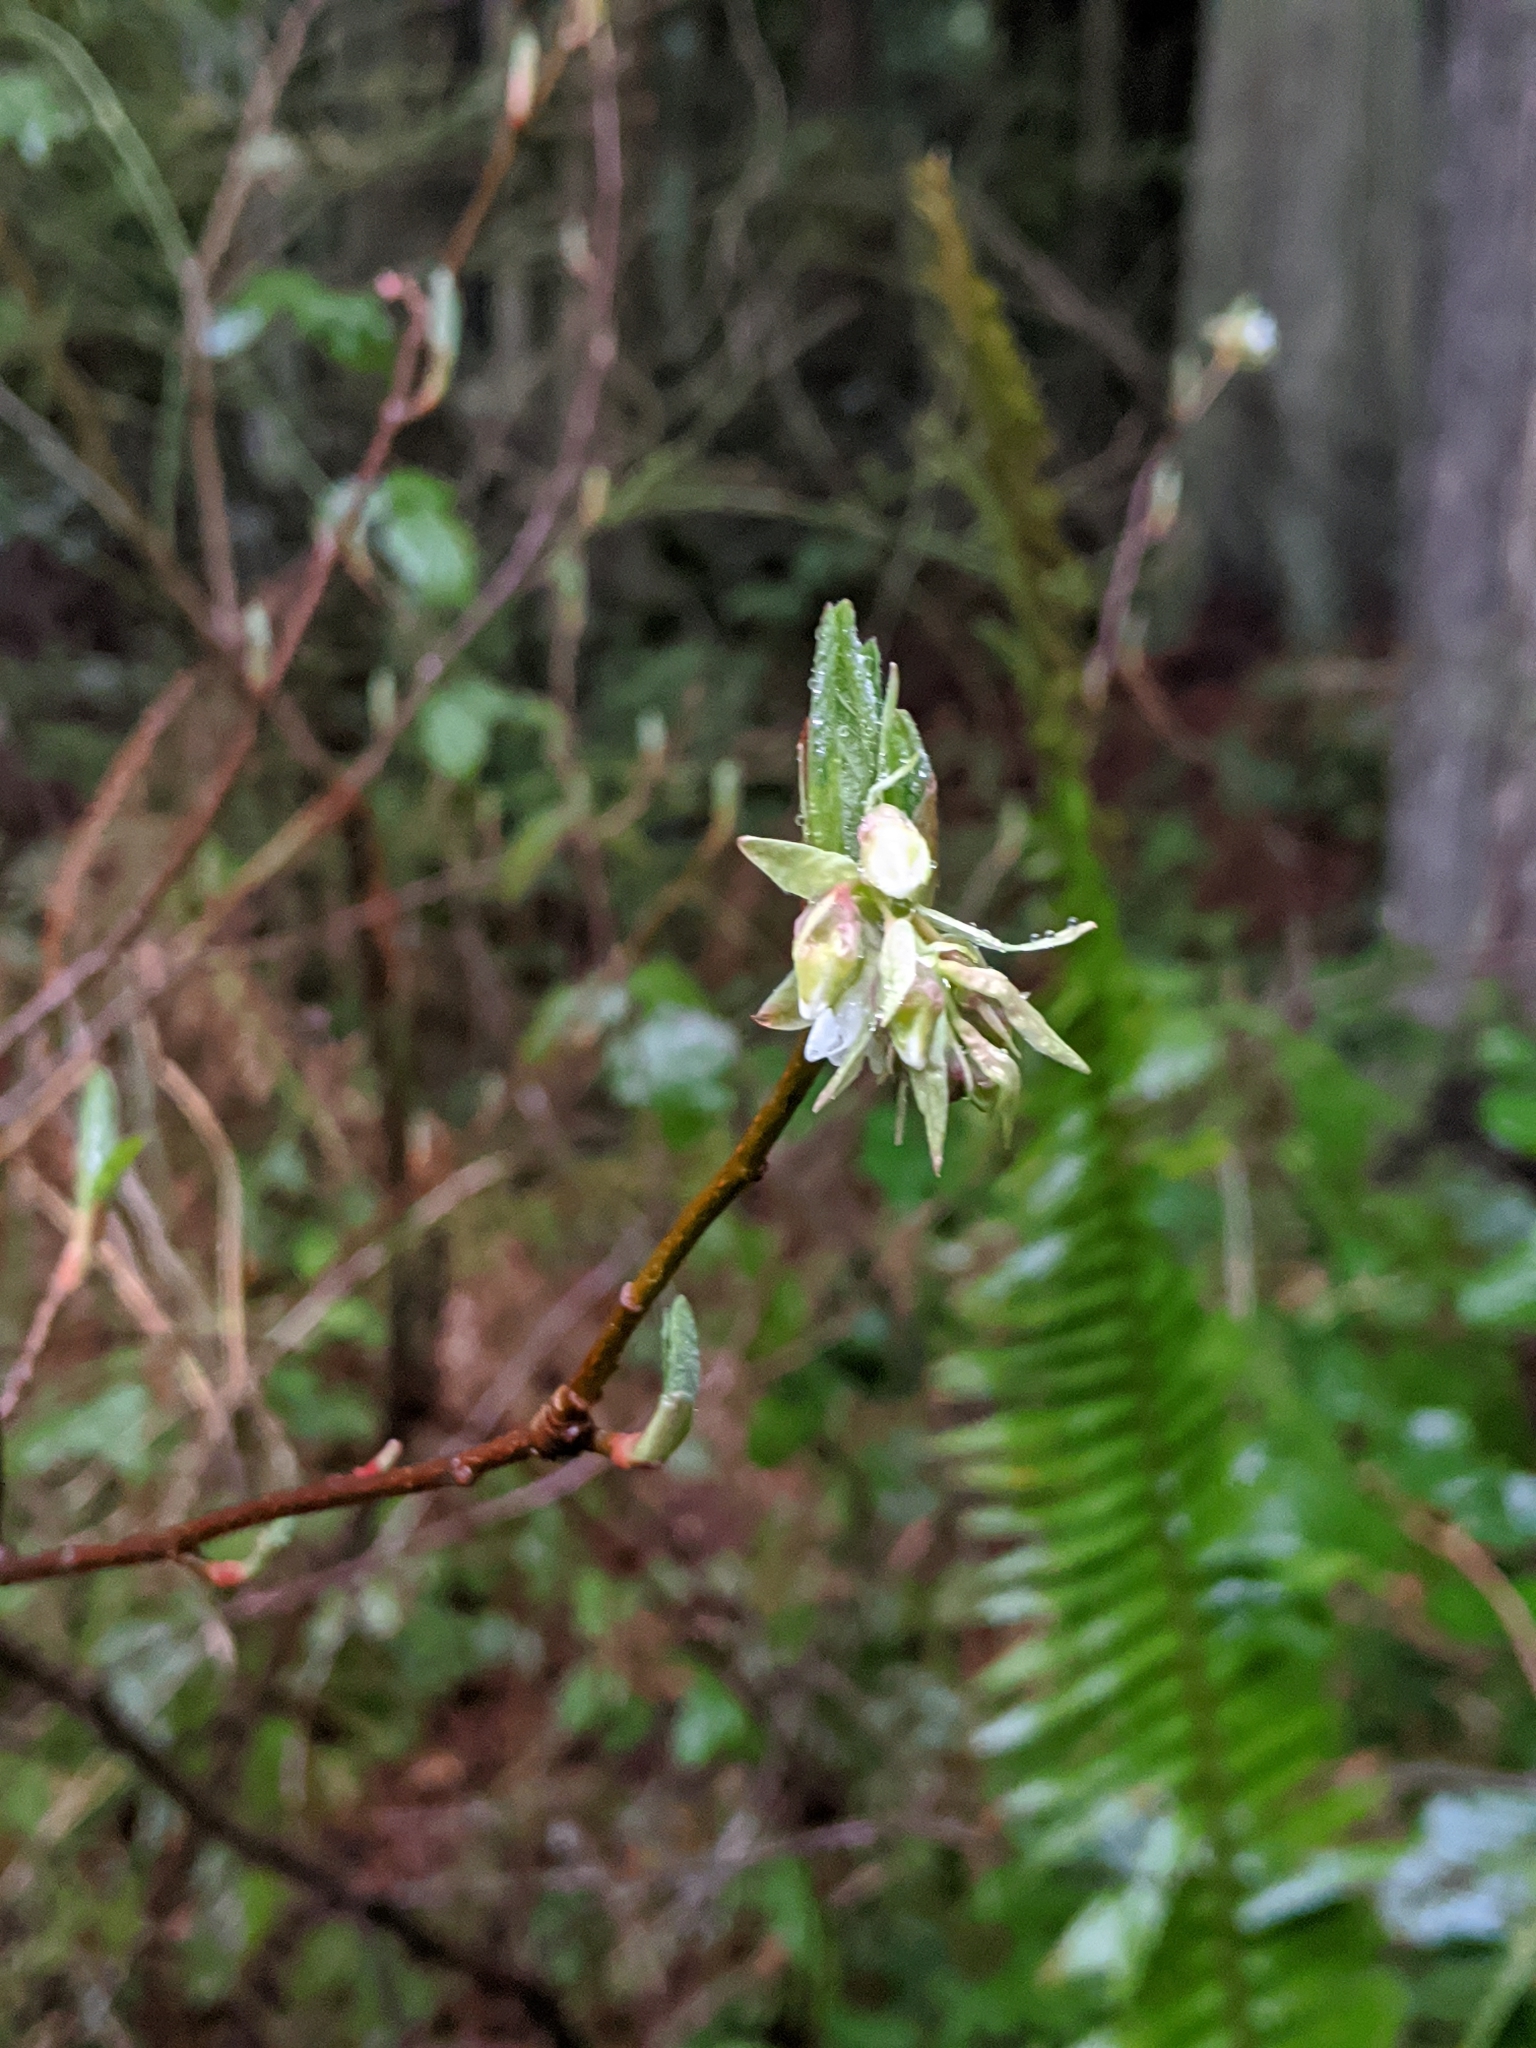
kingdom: Plantae
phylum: Tracheophyta
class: Magnoliopsida
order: Rosales
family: Rosaceae
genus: Oemleria
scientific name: Oemleria cerasiformis
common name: Osoberry
